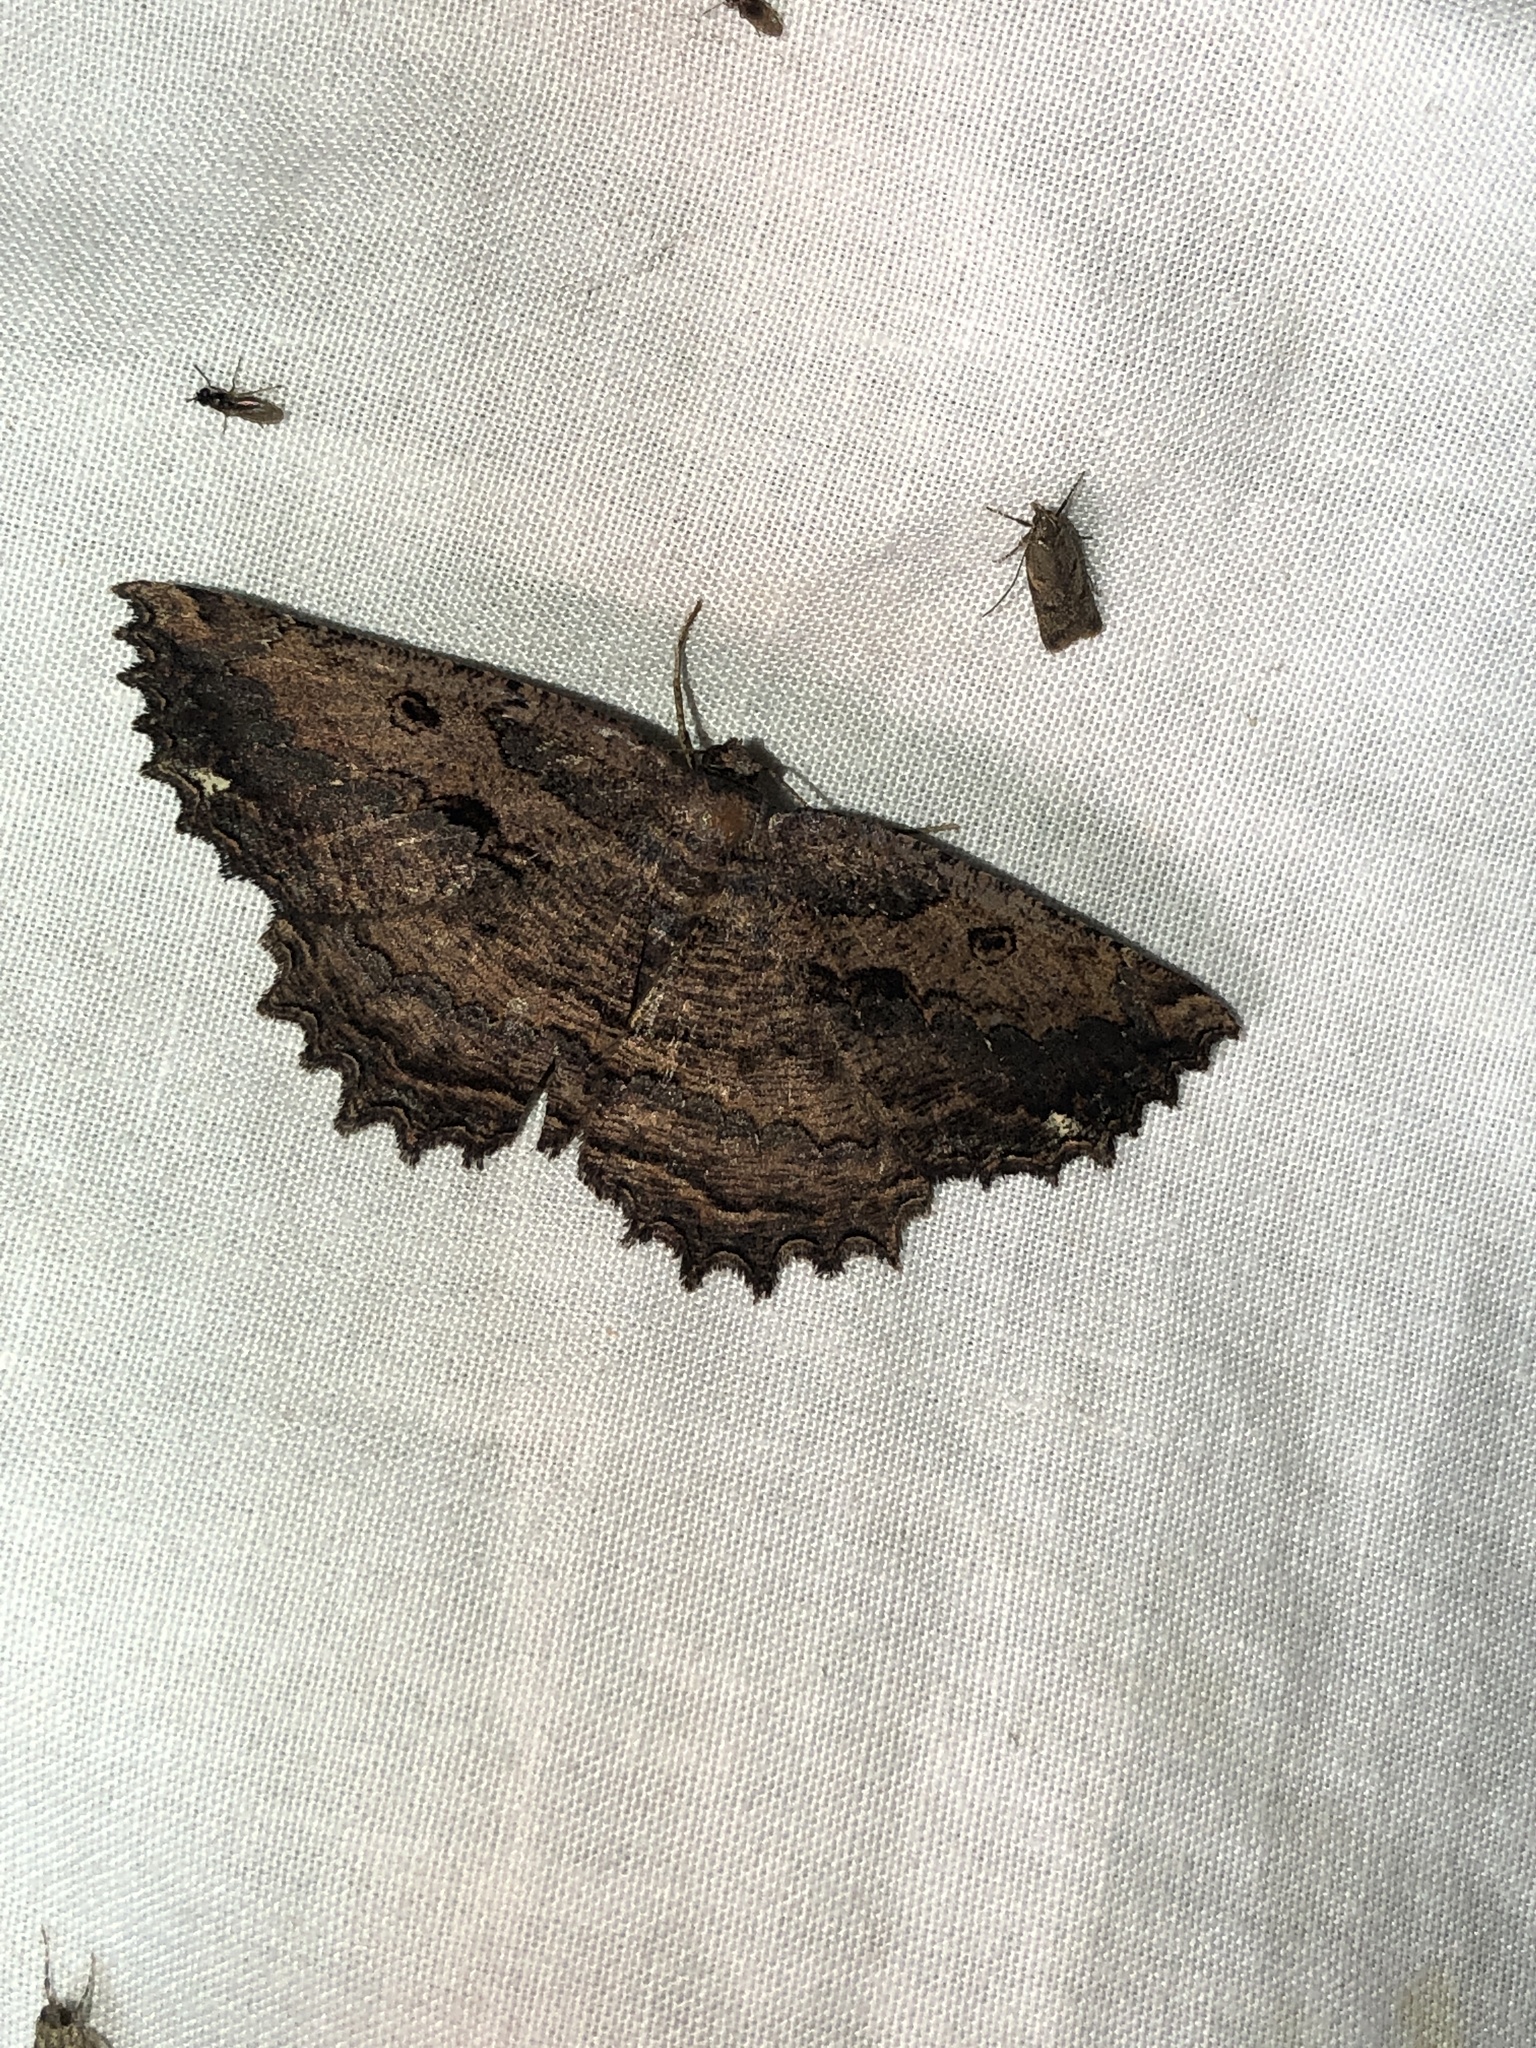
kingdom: Animalia
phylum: Arthropoda
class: Insecta
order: Lepidoptera
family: Geometridae
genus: Gellonia
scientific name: Gellonia pannularia
